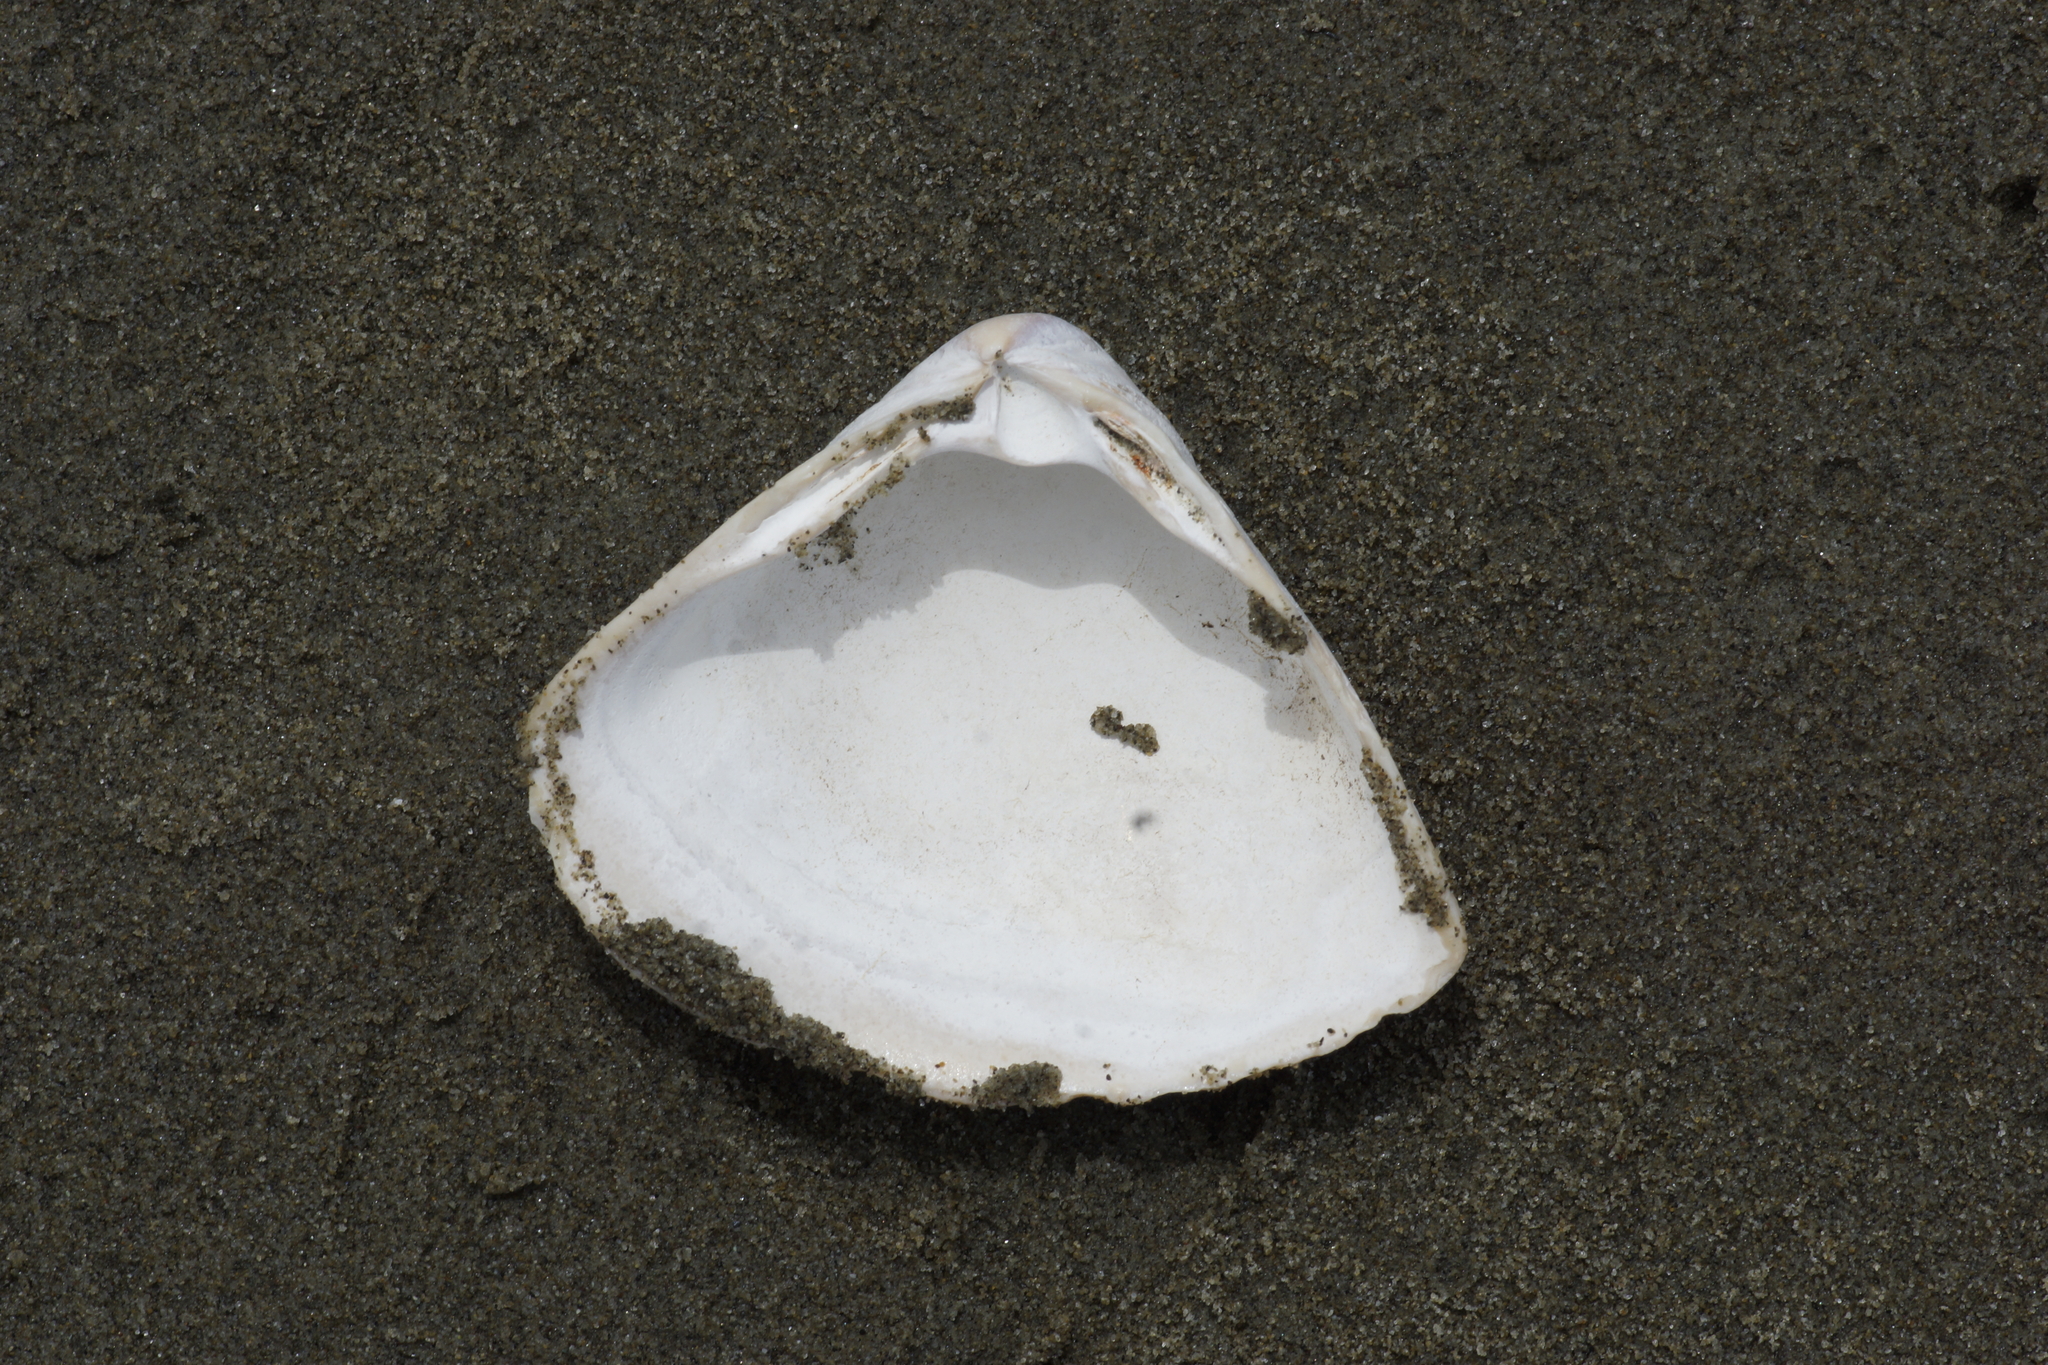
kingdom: Animalia
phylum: Mollusca
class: Bivalvia
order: Venerida
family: Mactridae
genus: Crassula
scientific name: Crassula aequilatera
